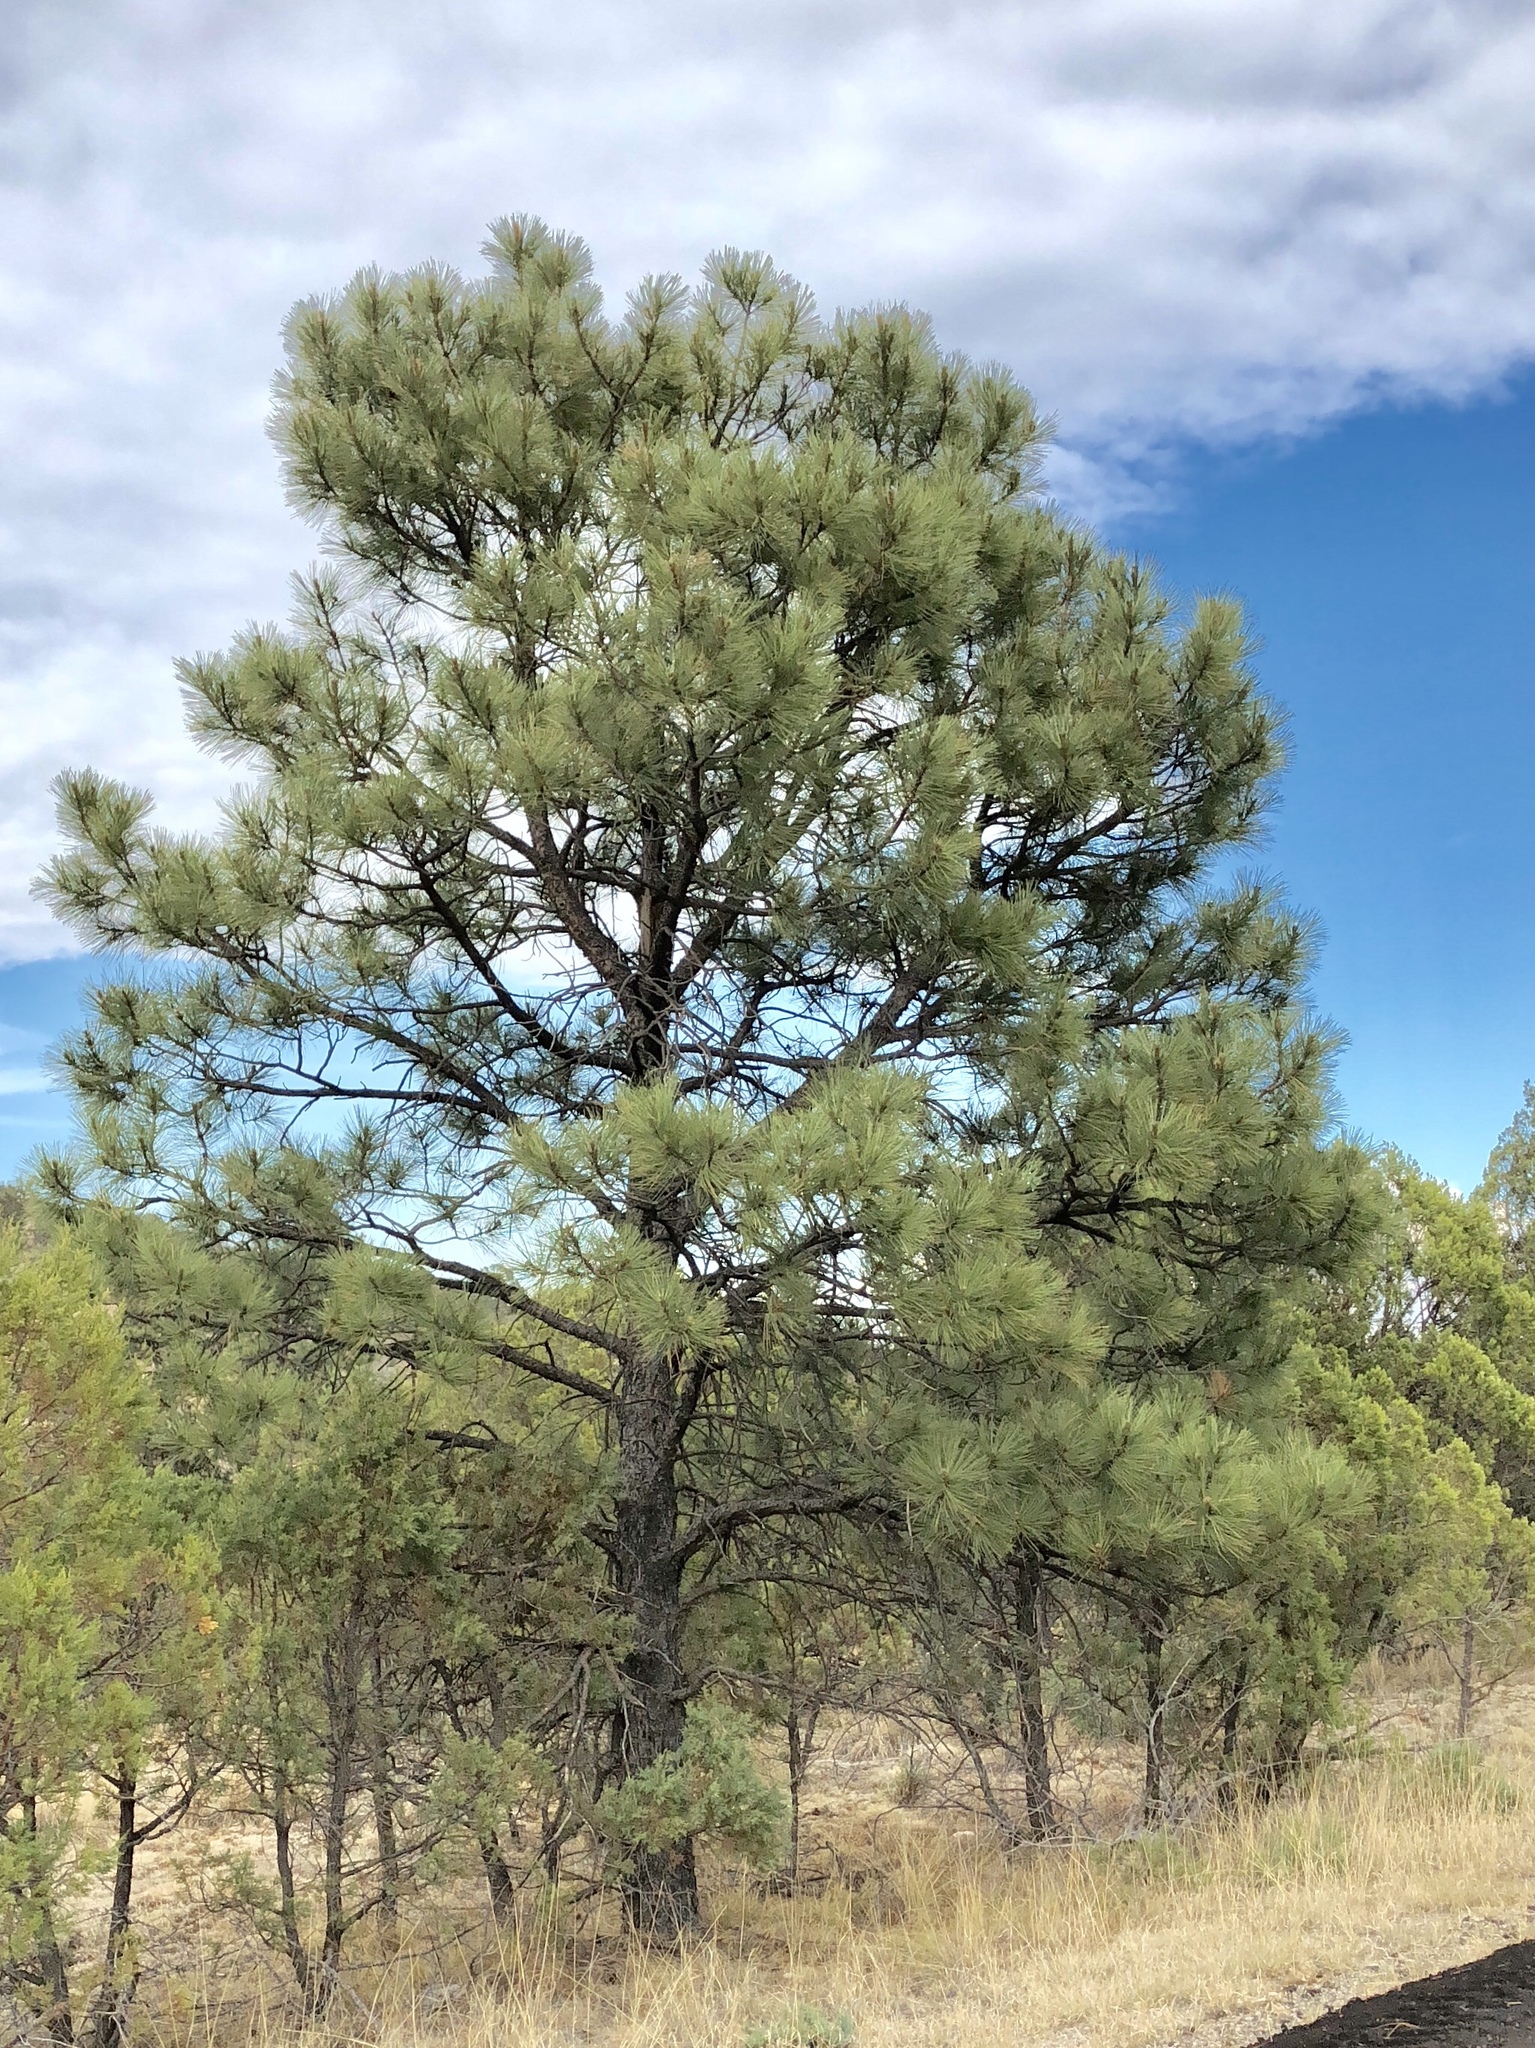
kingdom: Plantae
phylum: Tracheophyta
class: Pinopsida
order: Pinales
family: Pinaceae
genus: Pinus
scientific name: Pinus ponderosa
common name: Western yellow-pine
